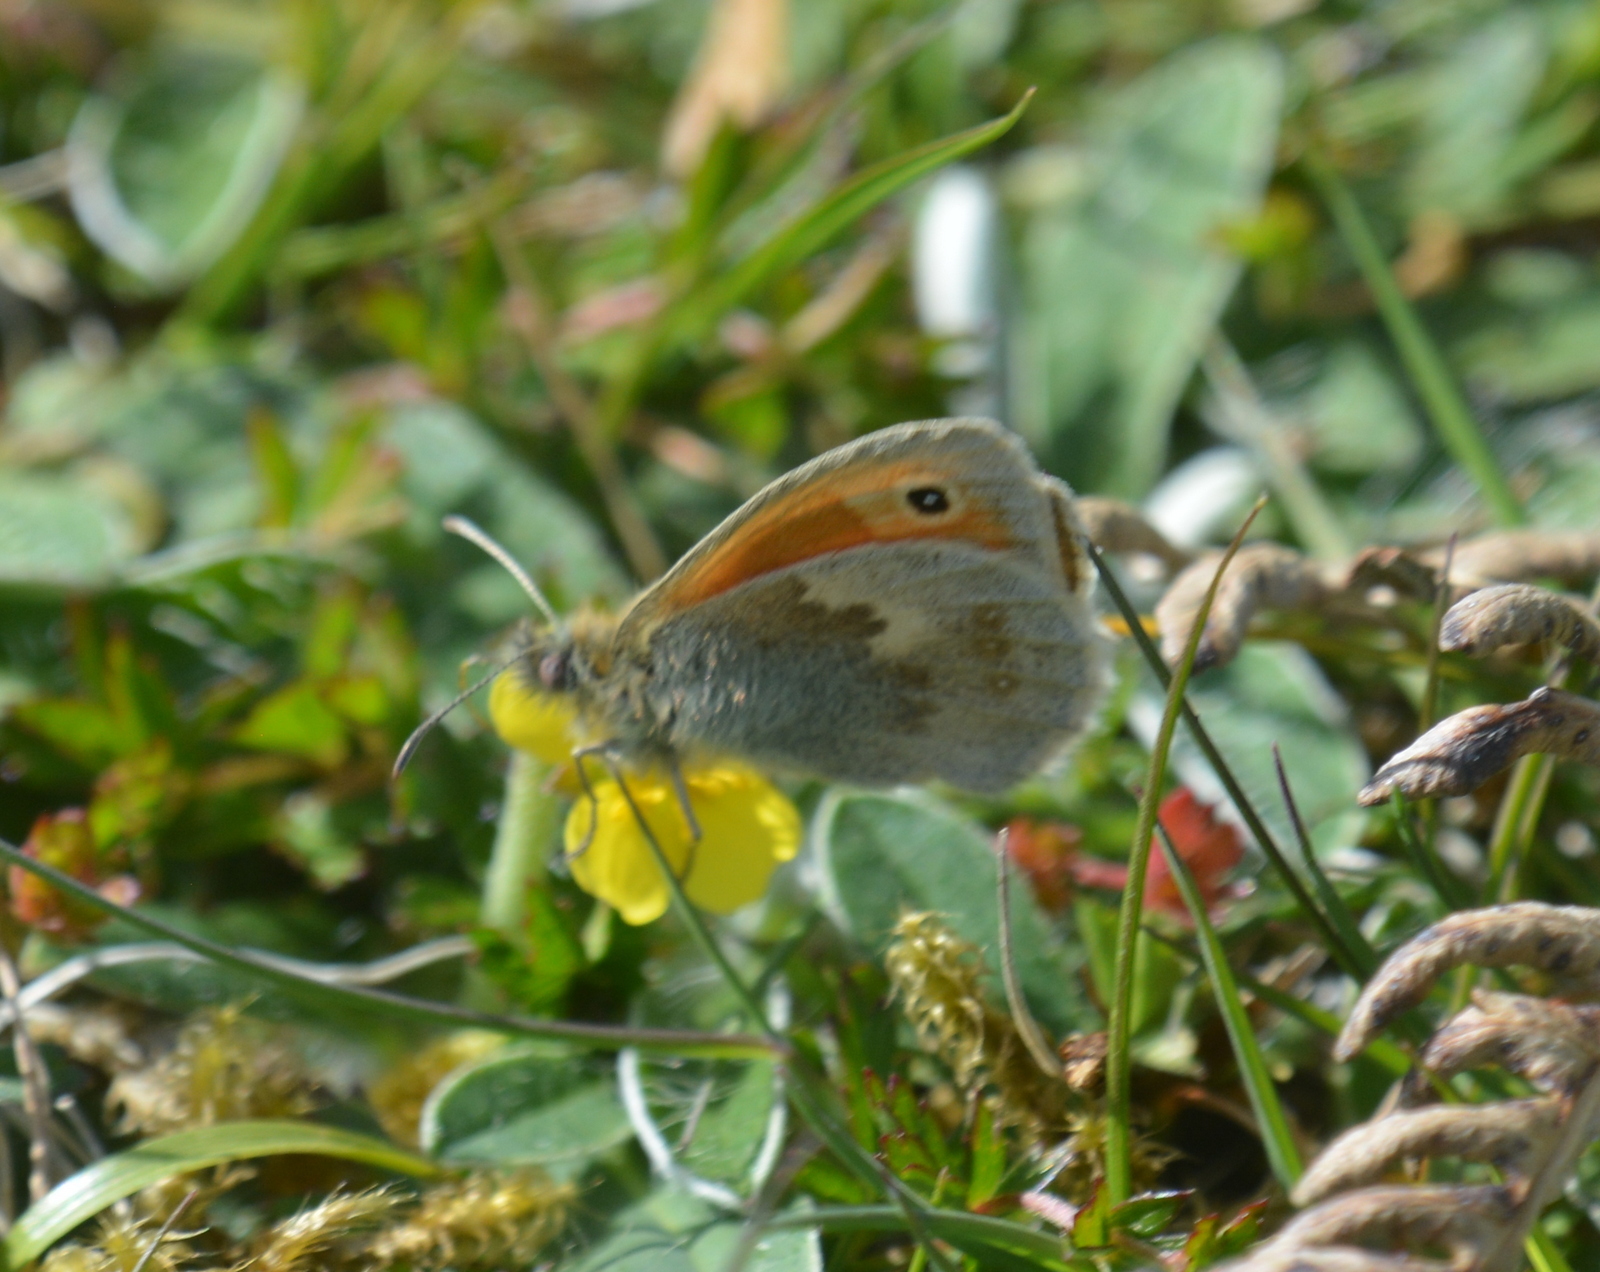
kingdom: Animalia
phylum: Arthropoda
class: Insecta
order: Lepidoptera
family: Nymphalidae
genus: Coenonympha
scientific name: Coenonympha pamphilus
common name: Small heath
